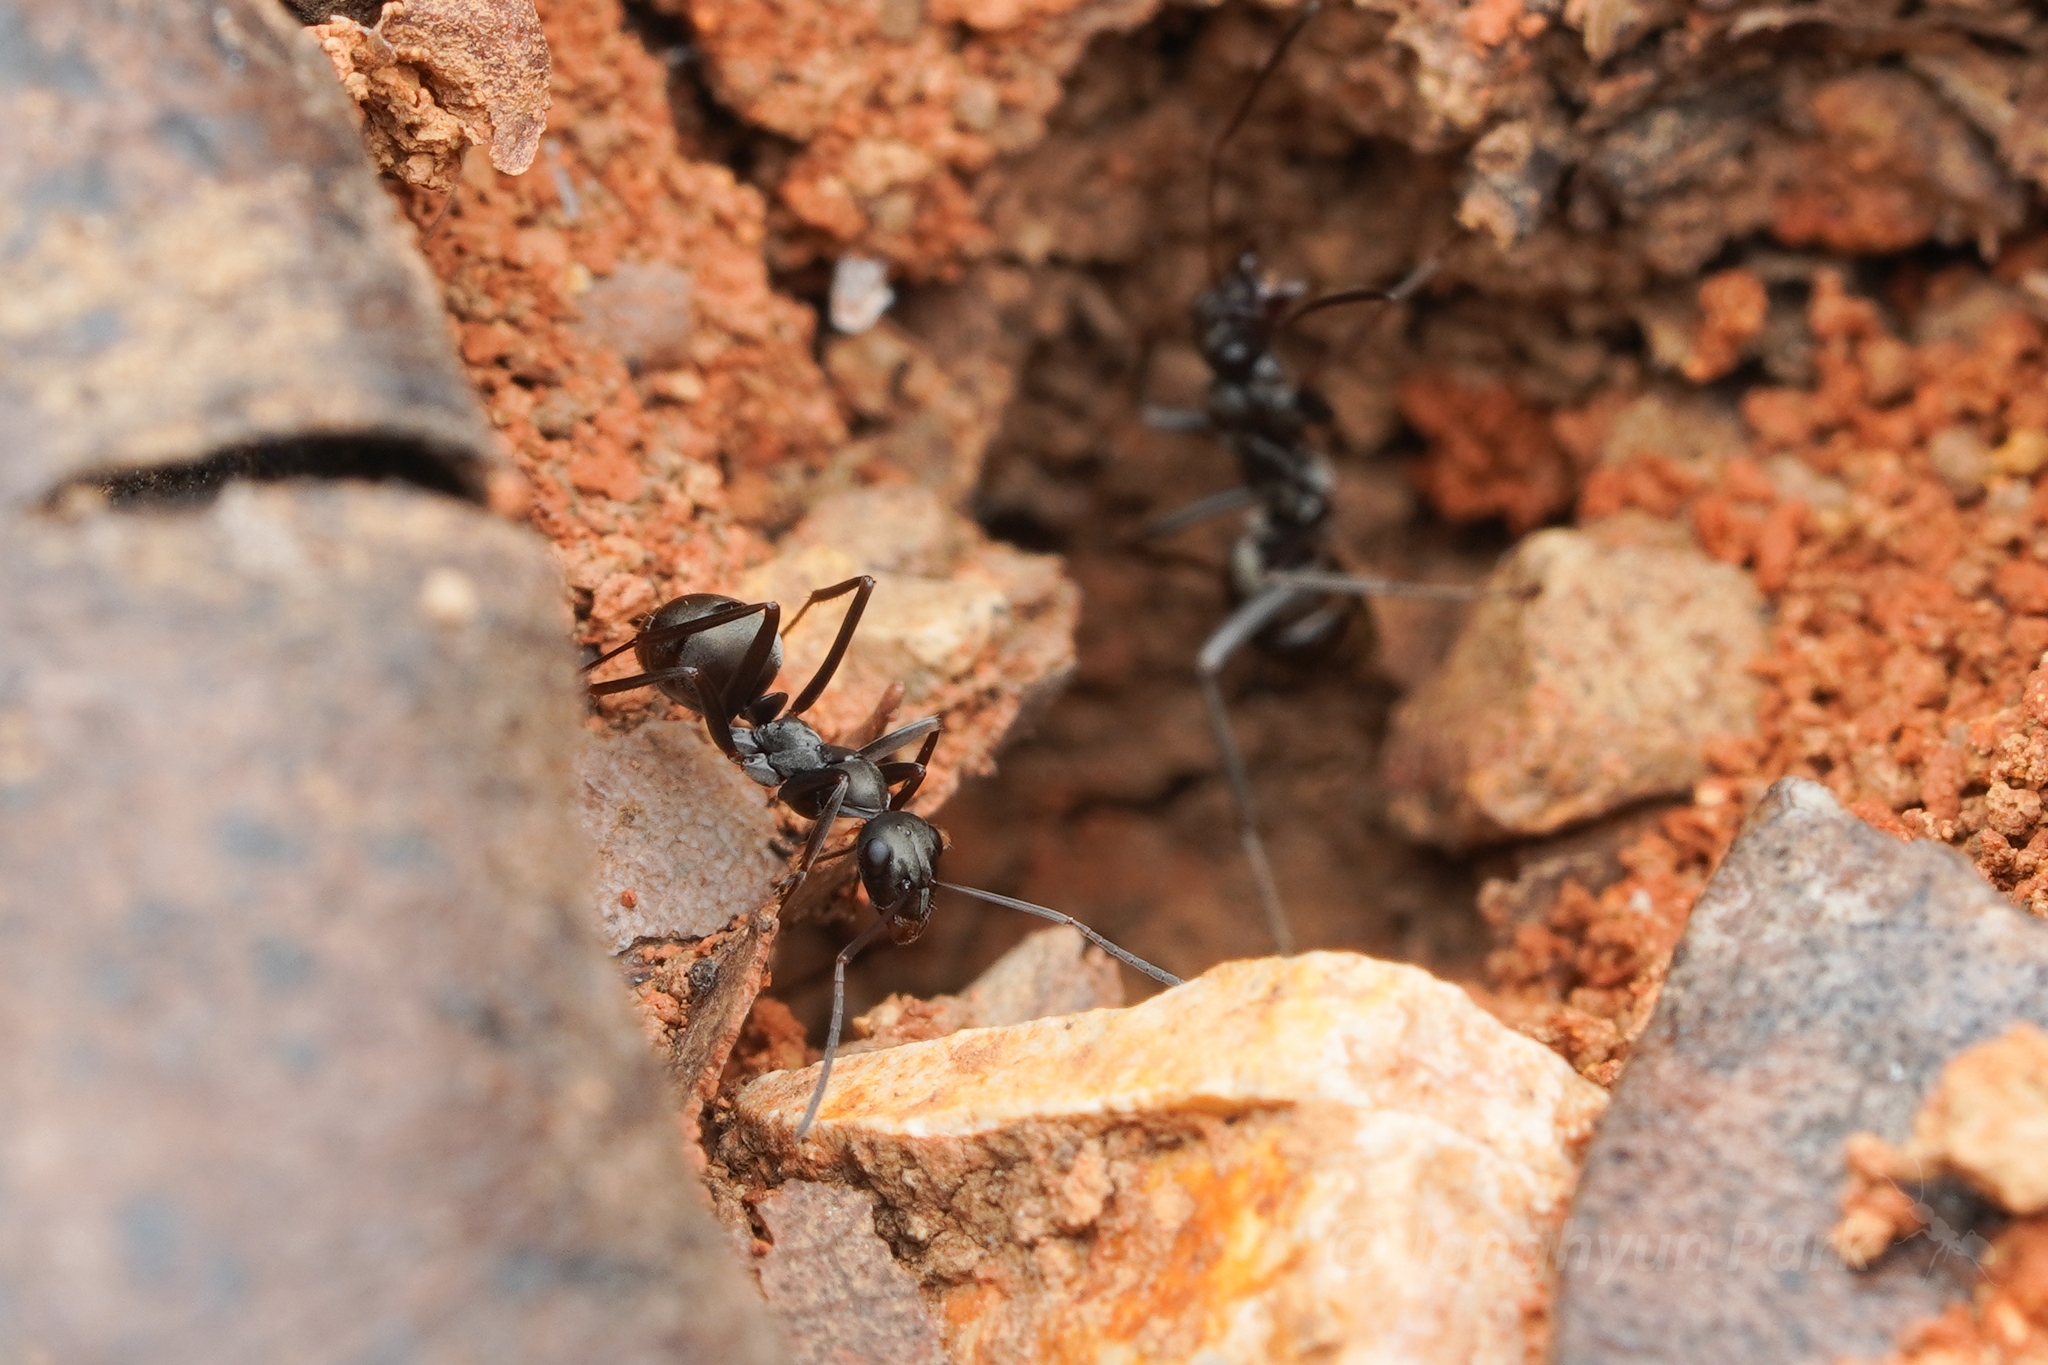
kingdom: Animalia
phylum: Arthropoda
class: Insecta
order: Hymenoptera
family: Formicidae
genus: Formica
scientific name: Formica hayashi
